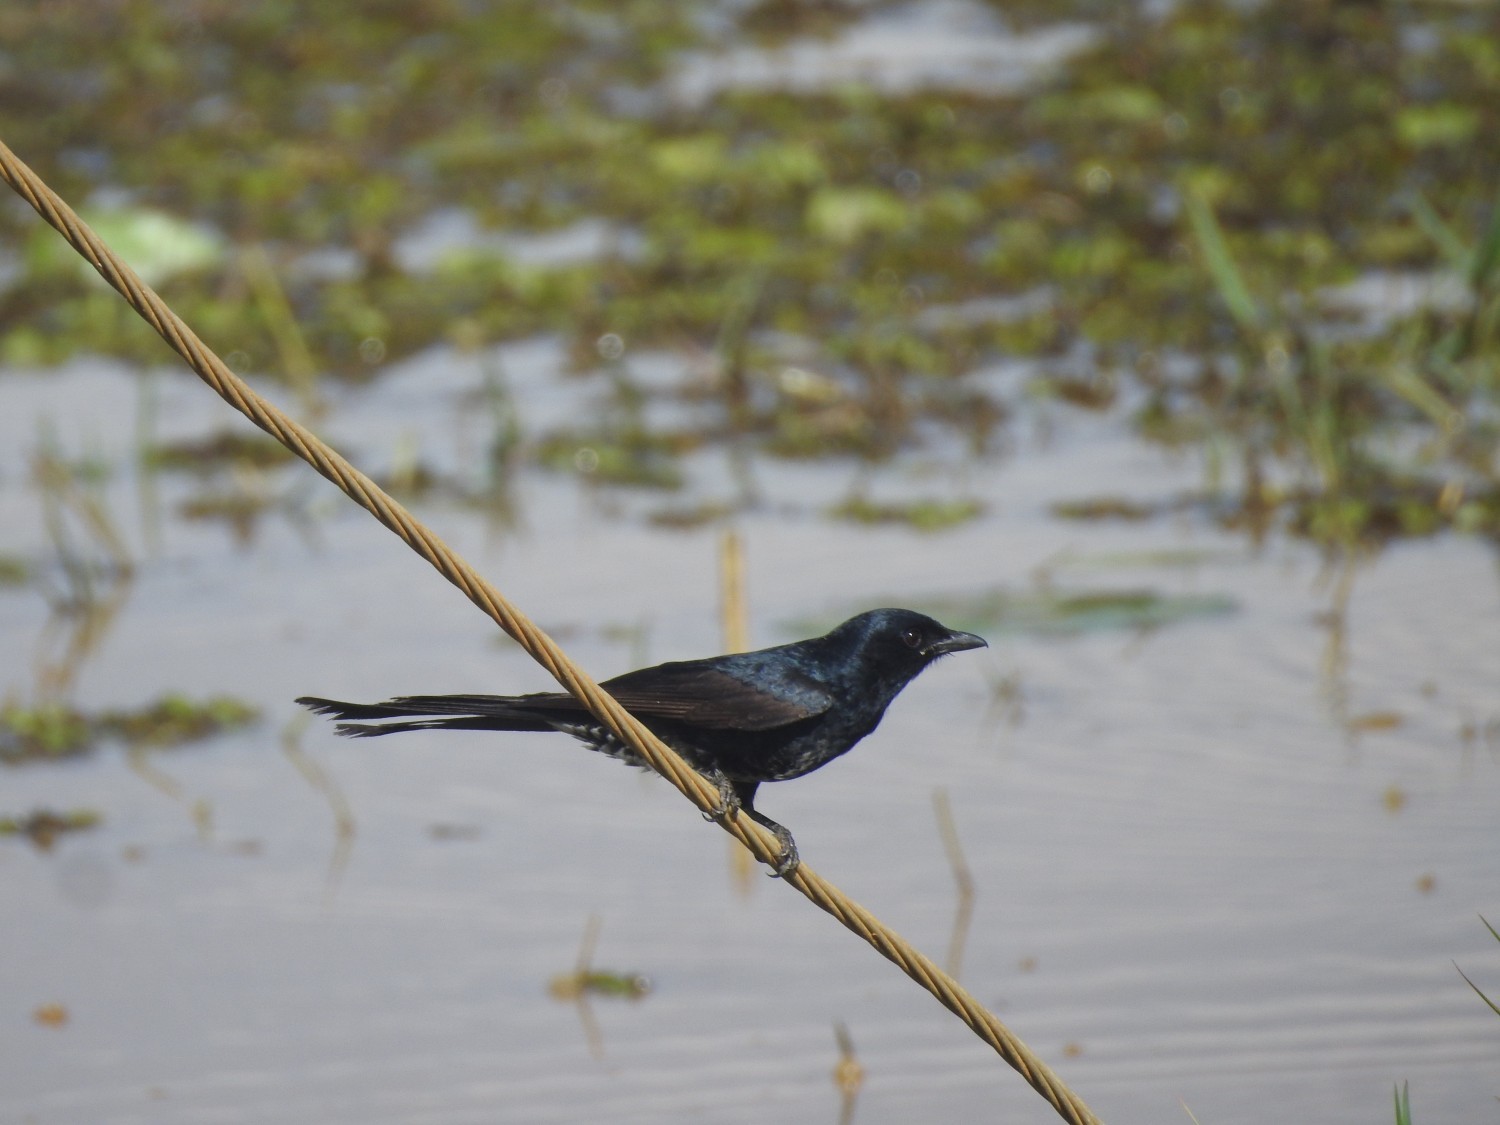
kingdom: Animalia
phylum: Chordata
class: Aves
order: Passeriformes
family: Dicruridae
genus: Dicrurus
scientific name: Dicrurus macrocercus
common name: Black drongo
